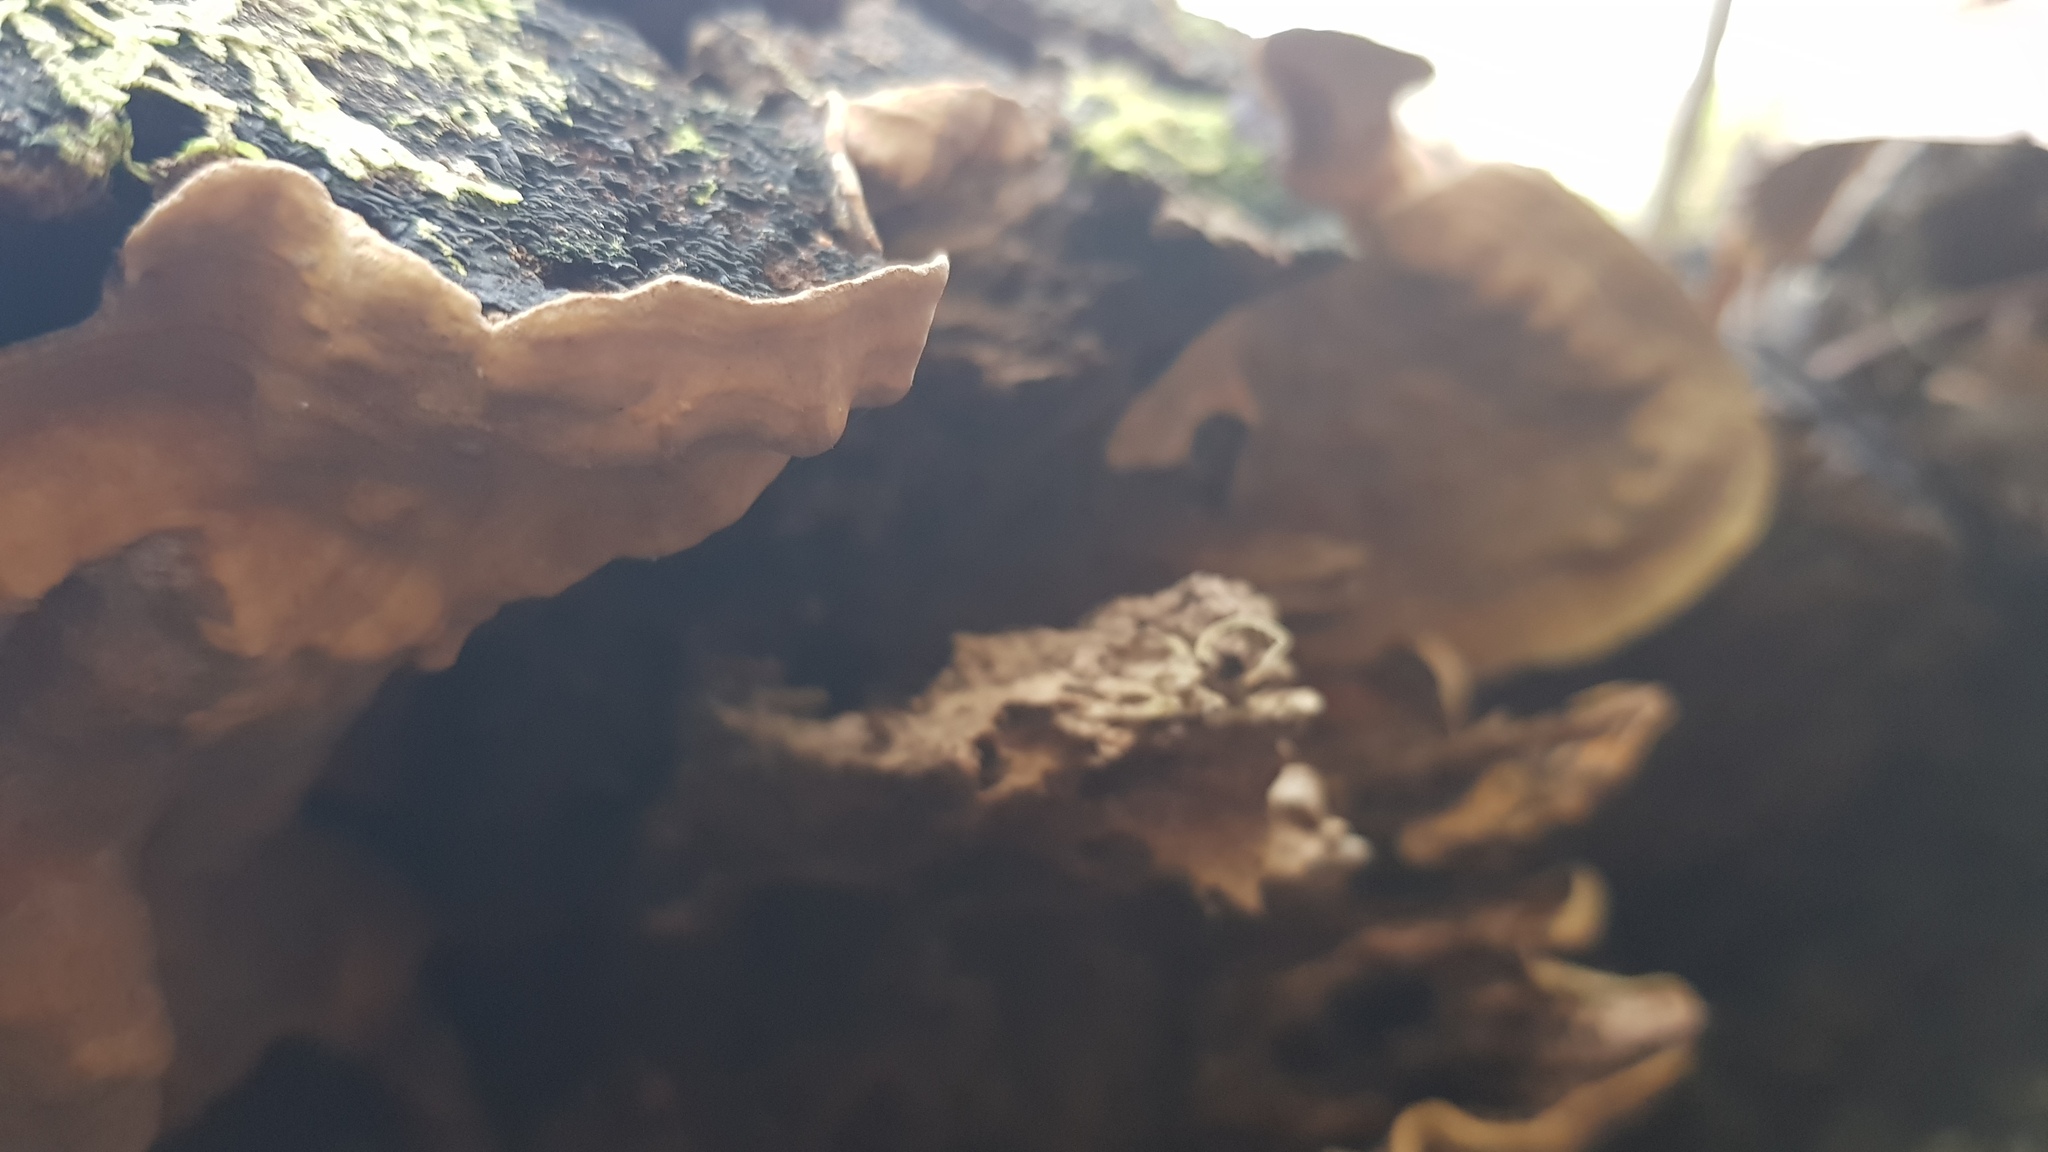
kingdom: Fungi
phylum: Basidiomycota
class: Agaricomycetes
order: Russulales
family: Stereaceae
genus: Stereum
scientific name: Stereum ostrea
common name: False turkeytail
